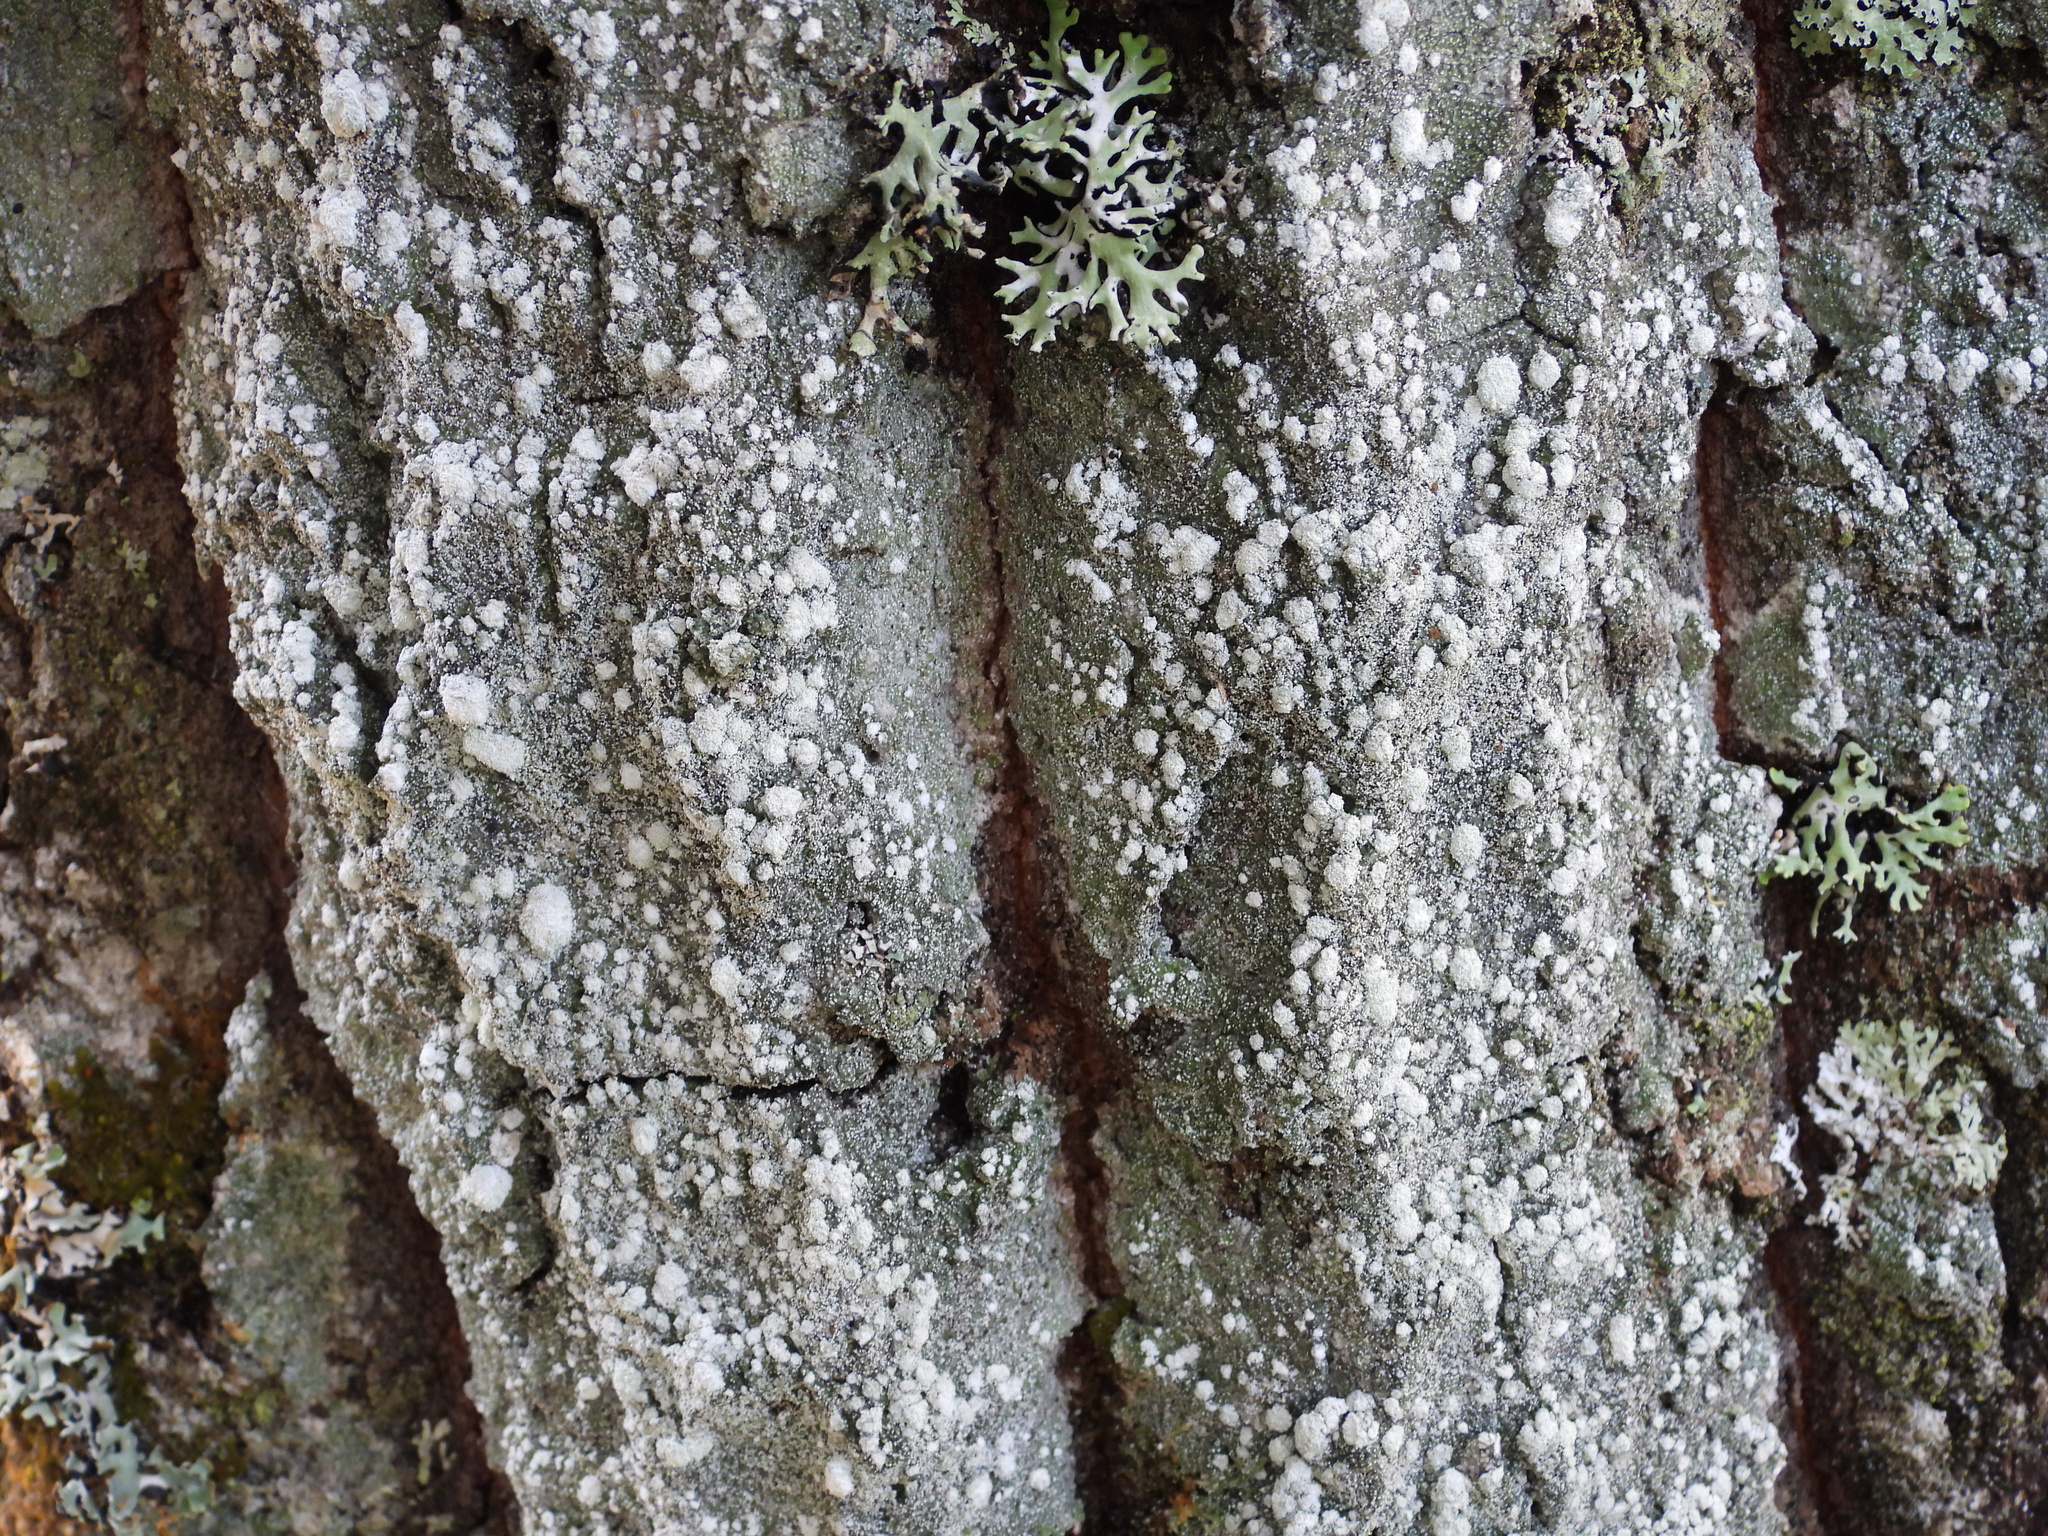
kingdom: Fungi
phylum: Ascomycota
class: Lecanoromycetes
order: Pertusariales
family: Pertusariaceae
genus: Lepra
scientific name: Lepra albescens
